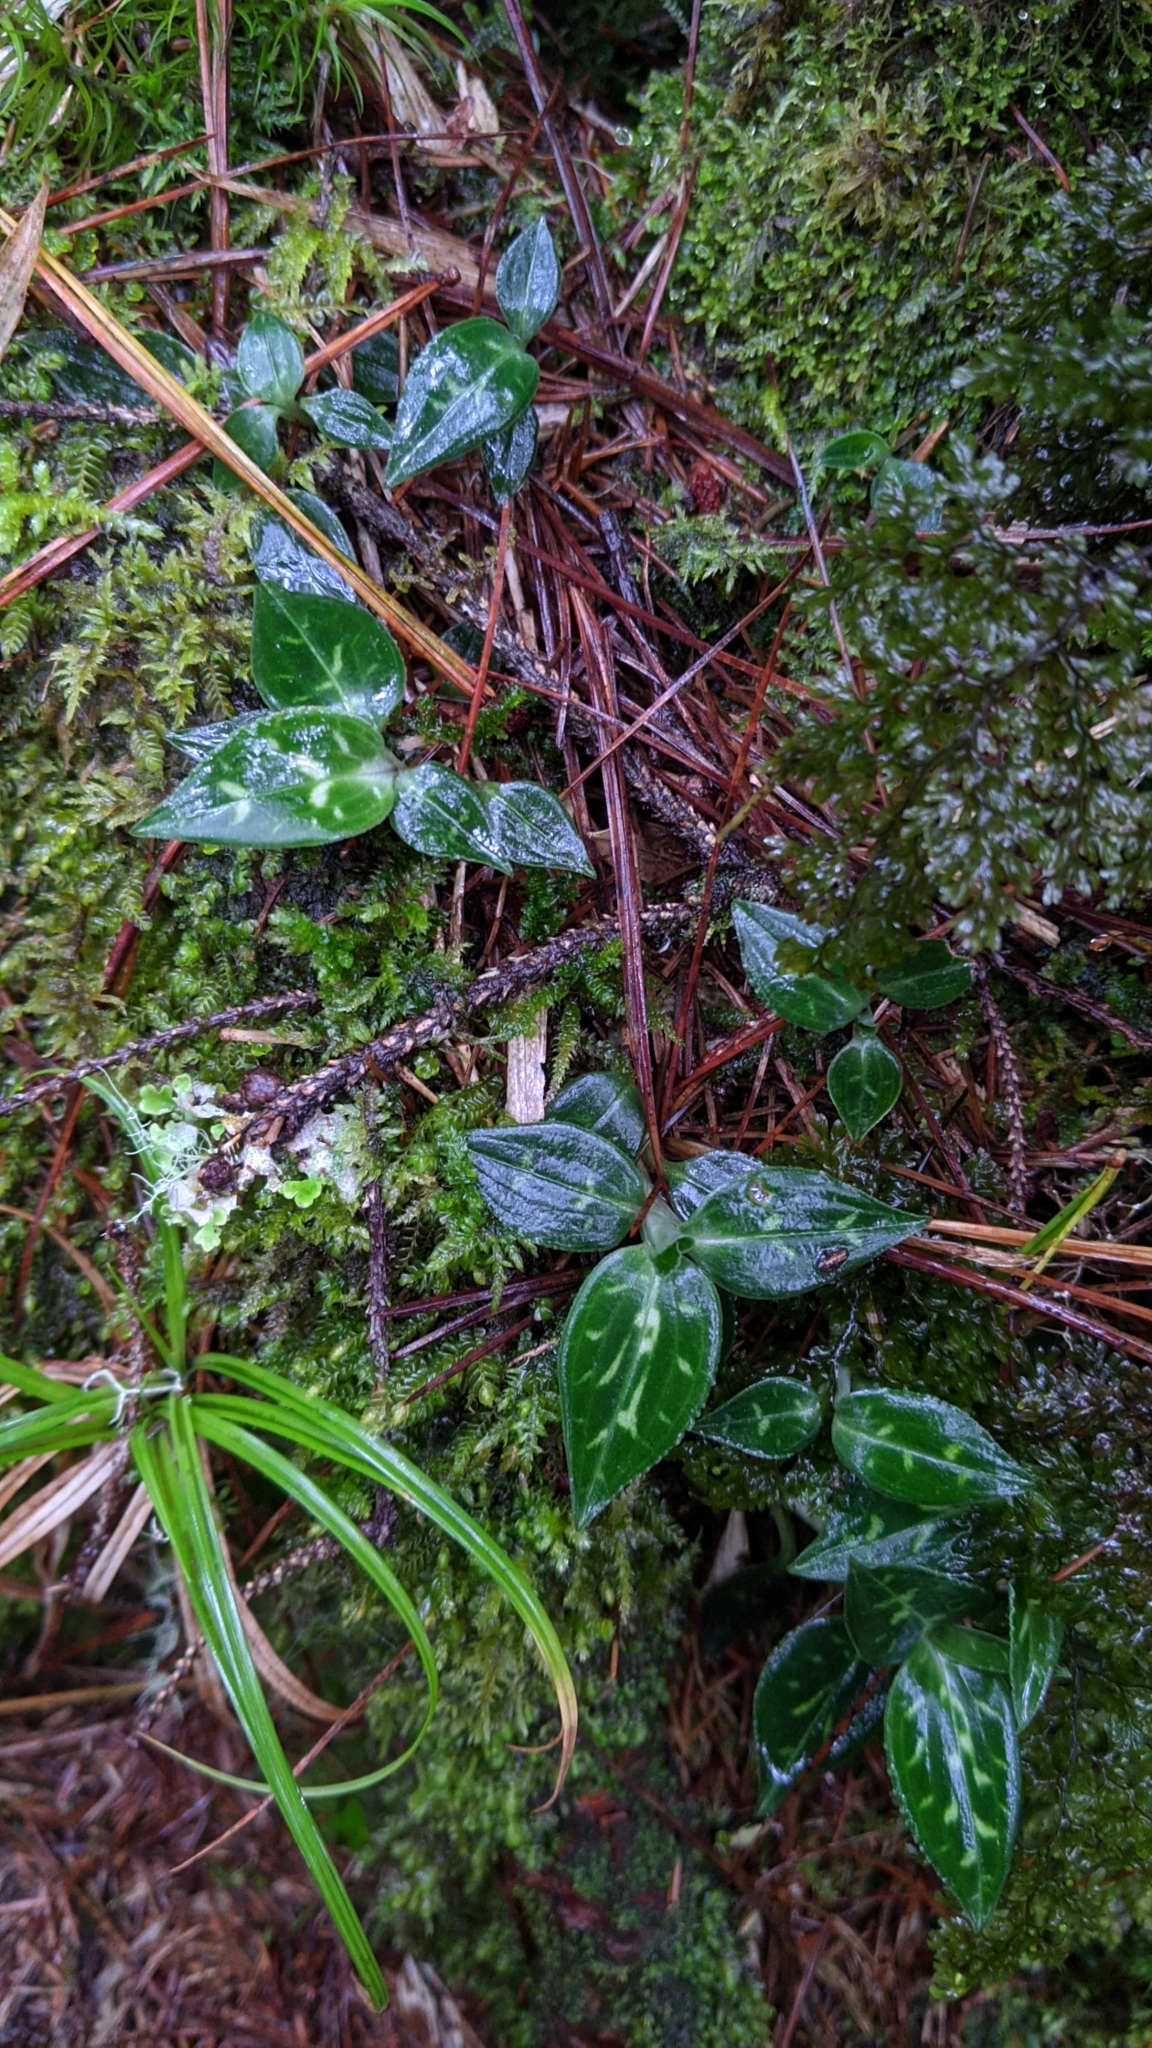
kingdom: Plantae
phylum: Tracheophyta
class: Liliopsida
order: Asparagales
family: Orchidaceae
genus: Goodyera
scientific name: Goodyera maculata
